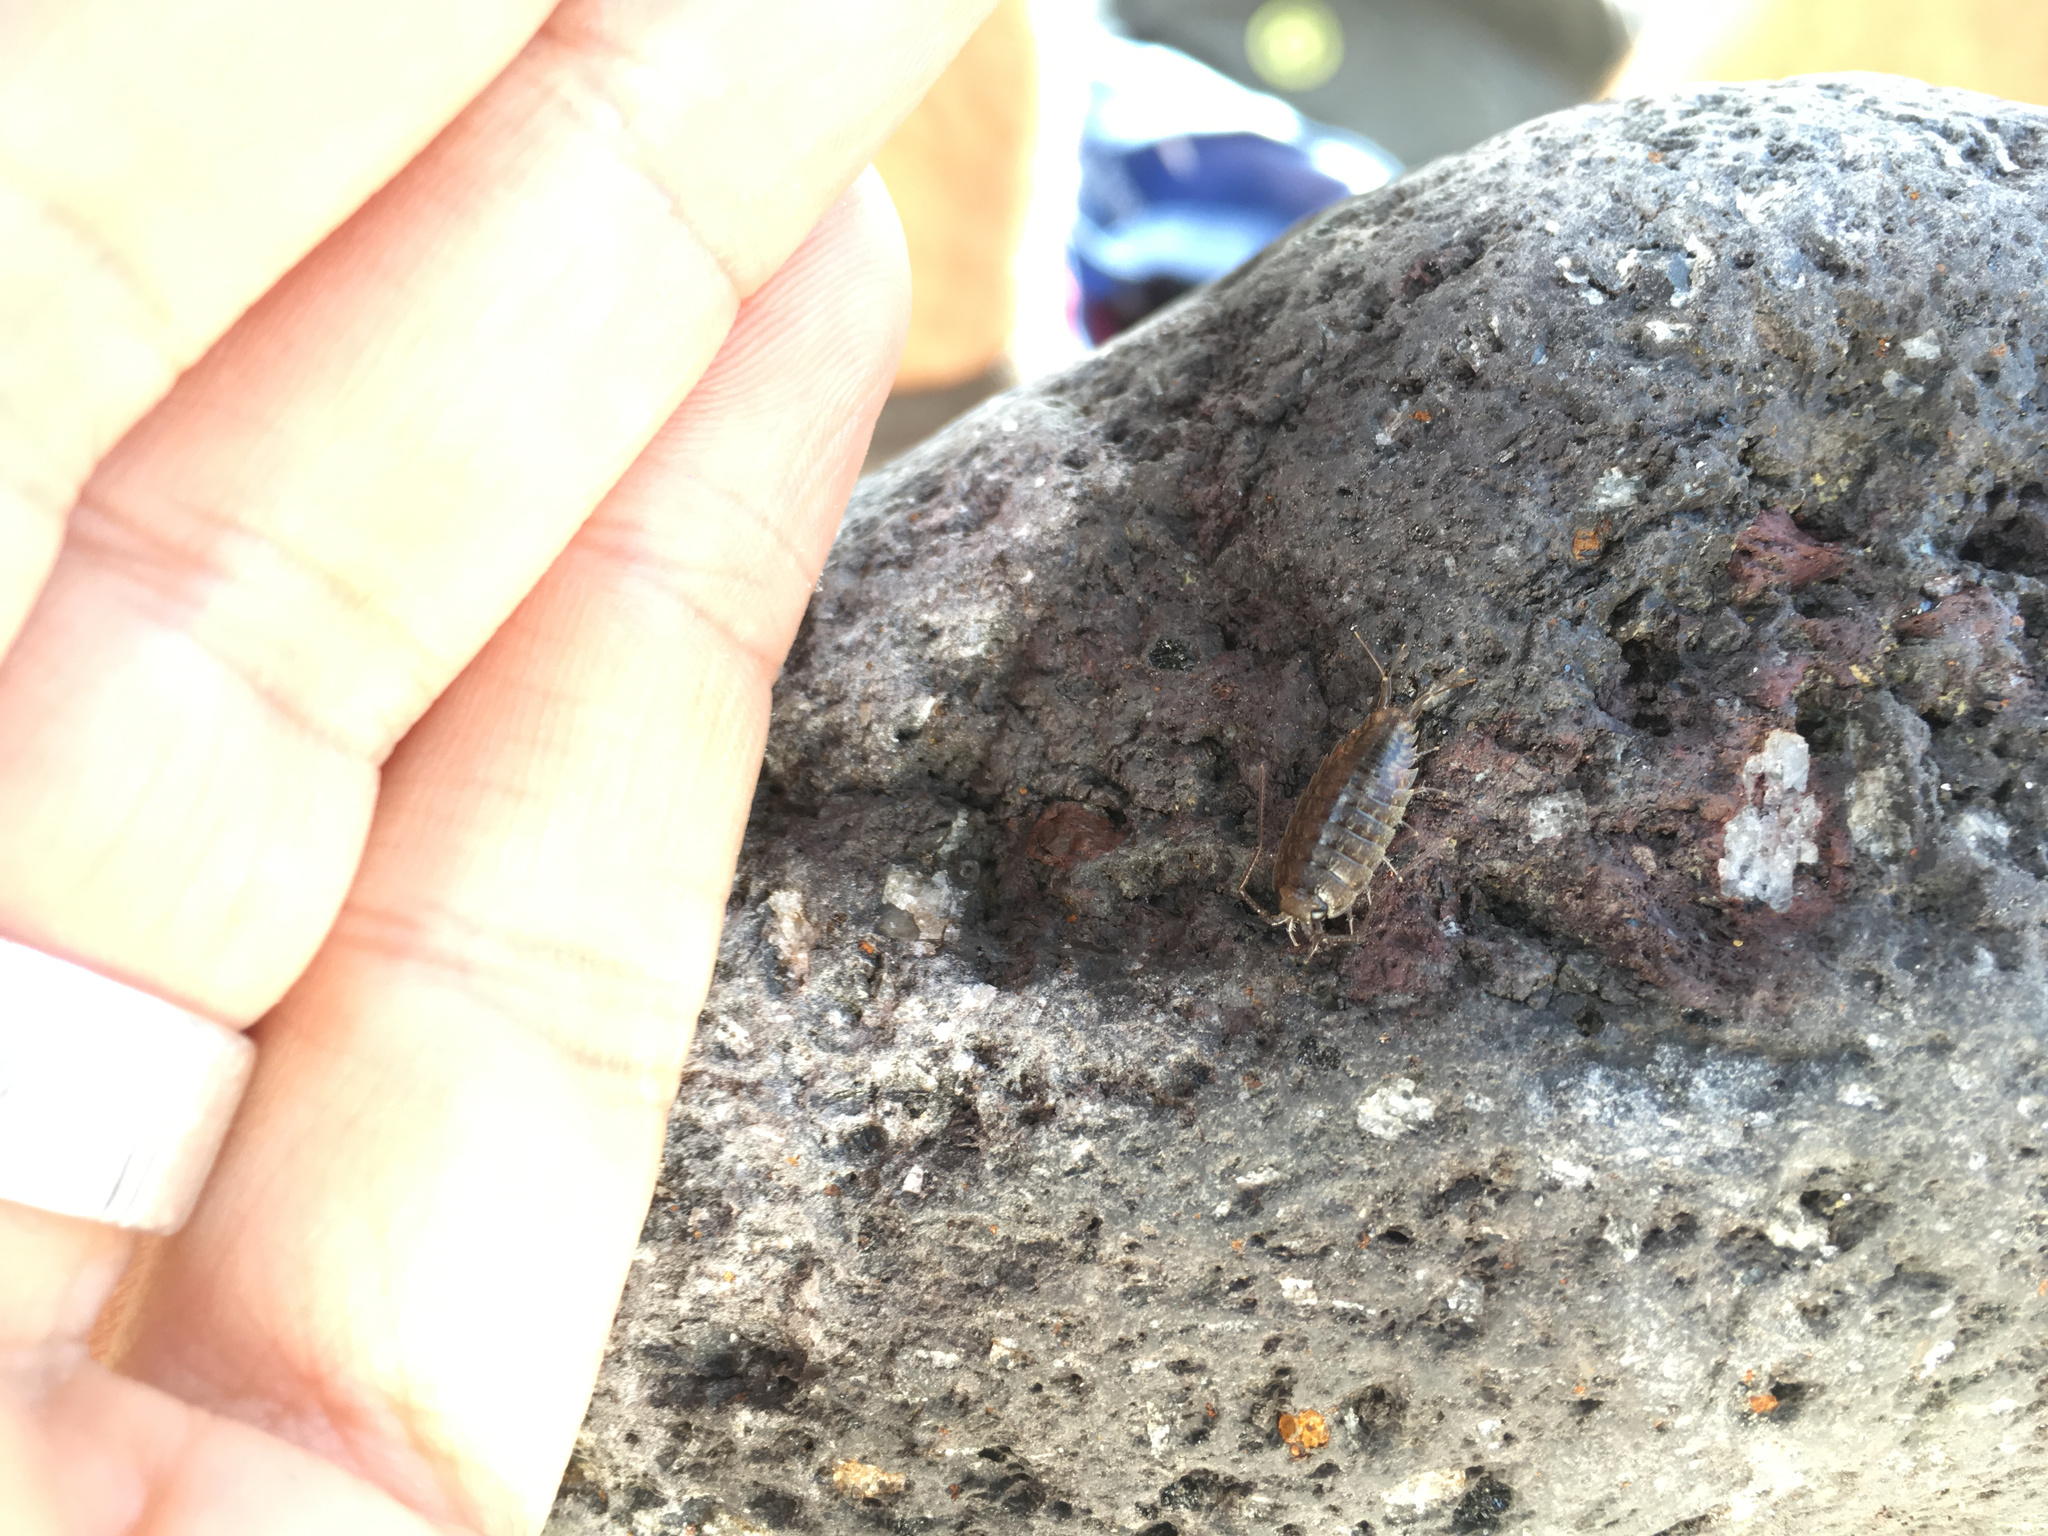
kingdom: Animalia
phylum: Arthropoda
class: Malacostraca
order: Isopoda
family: Ligiidae
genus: Ligia
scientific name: Ligia novizealandiae
